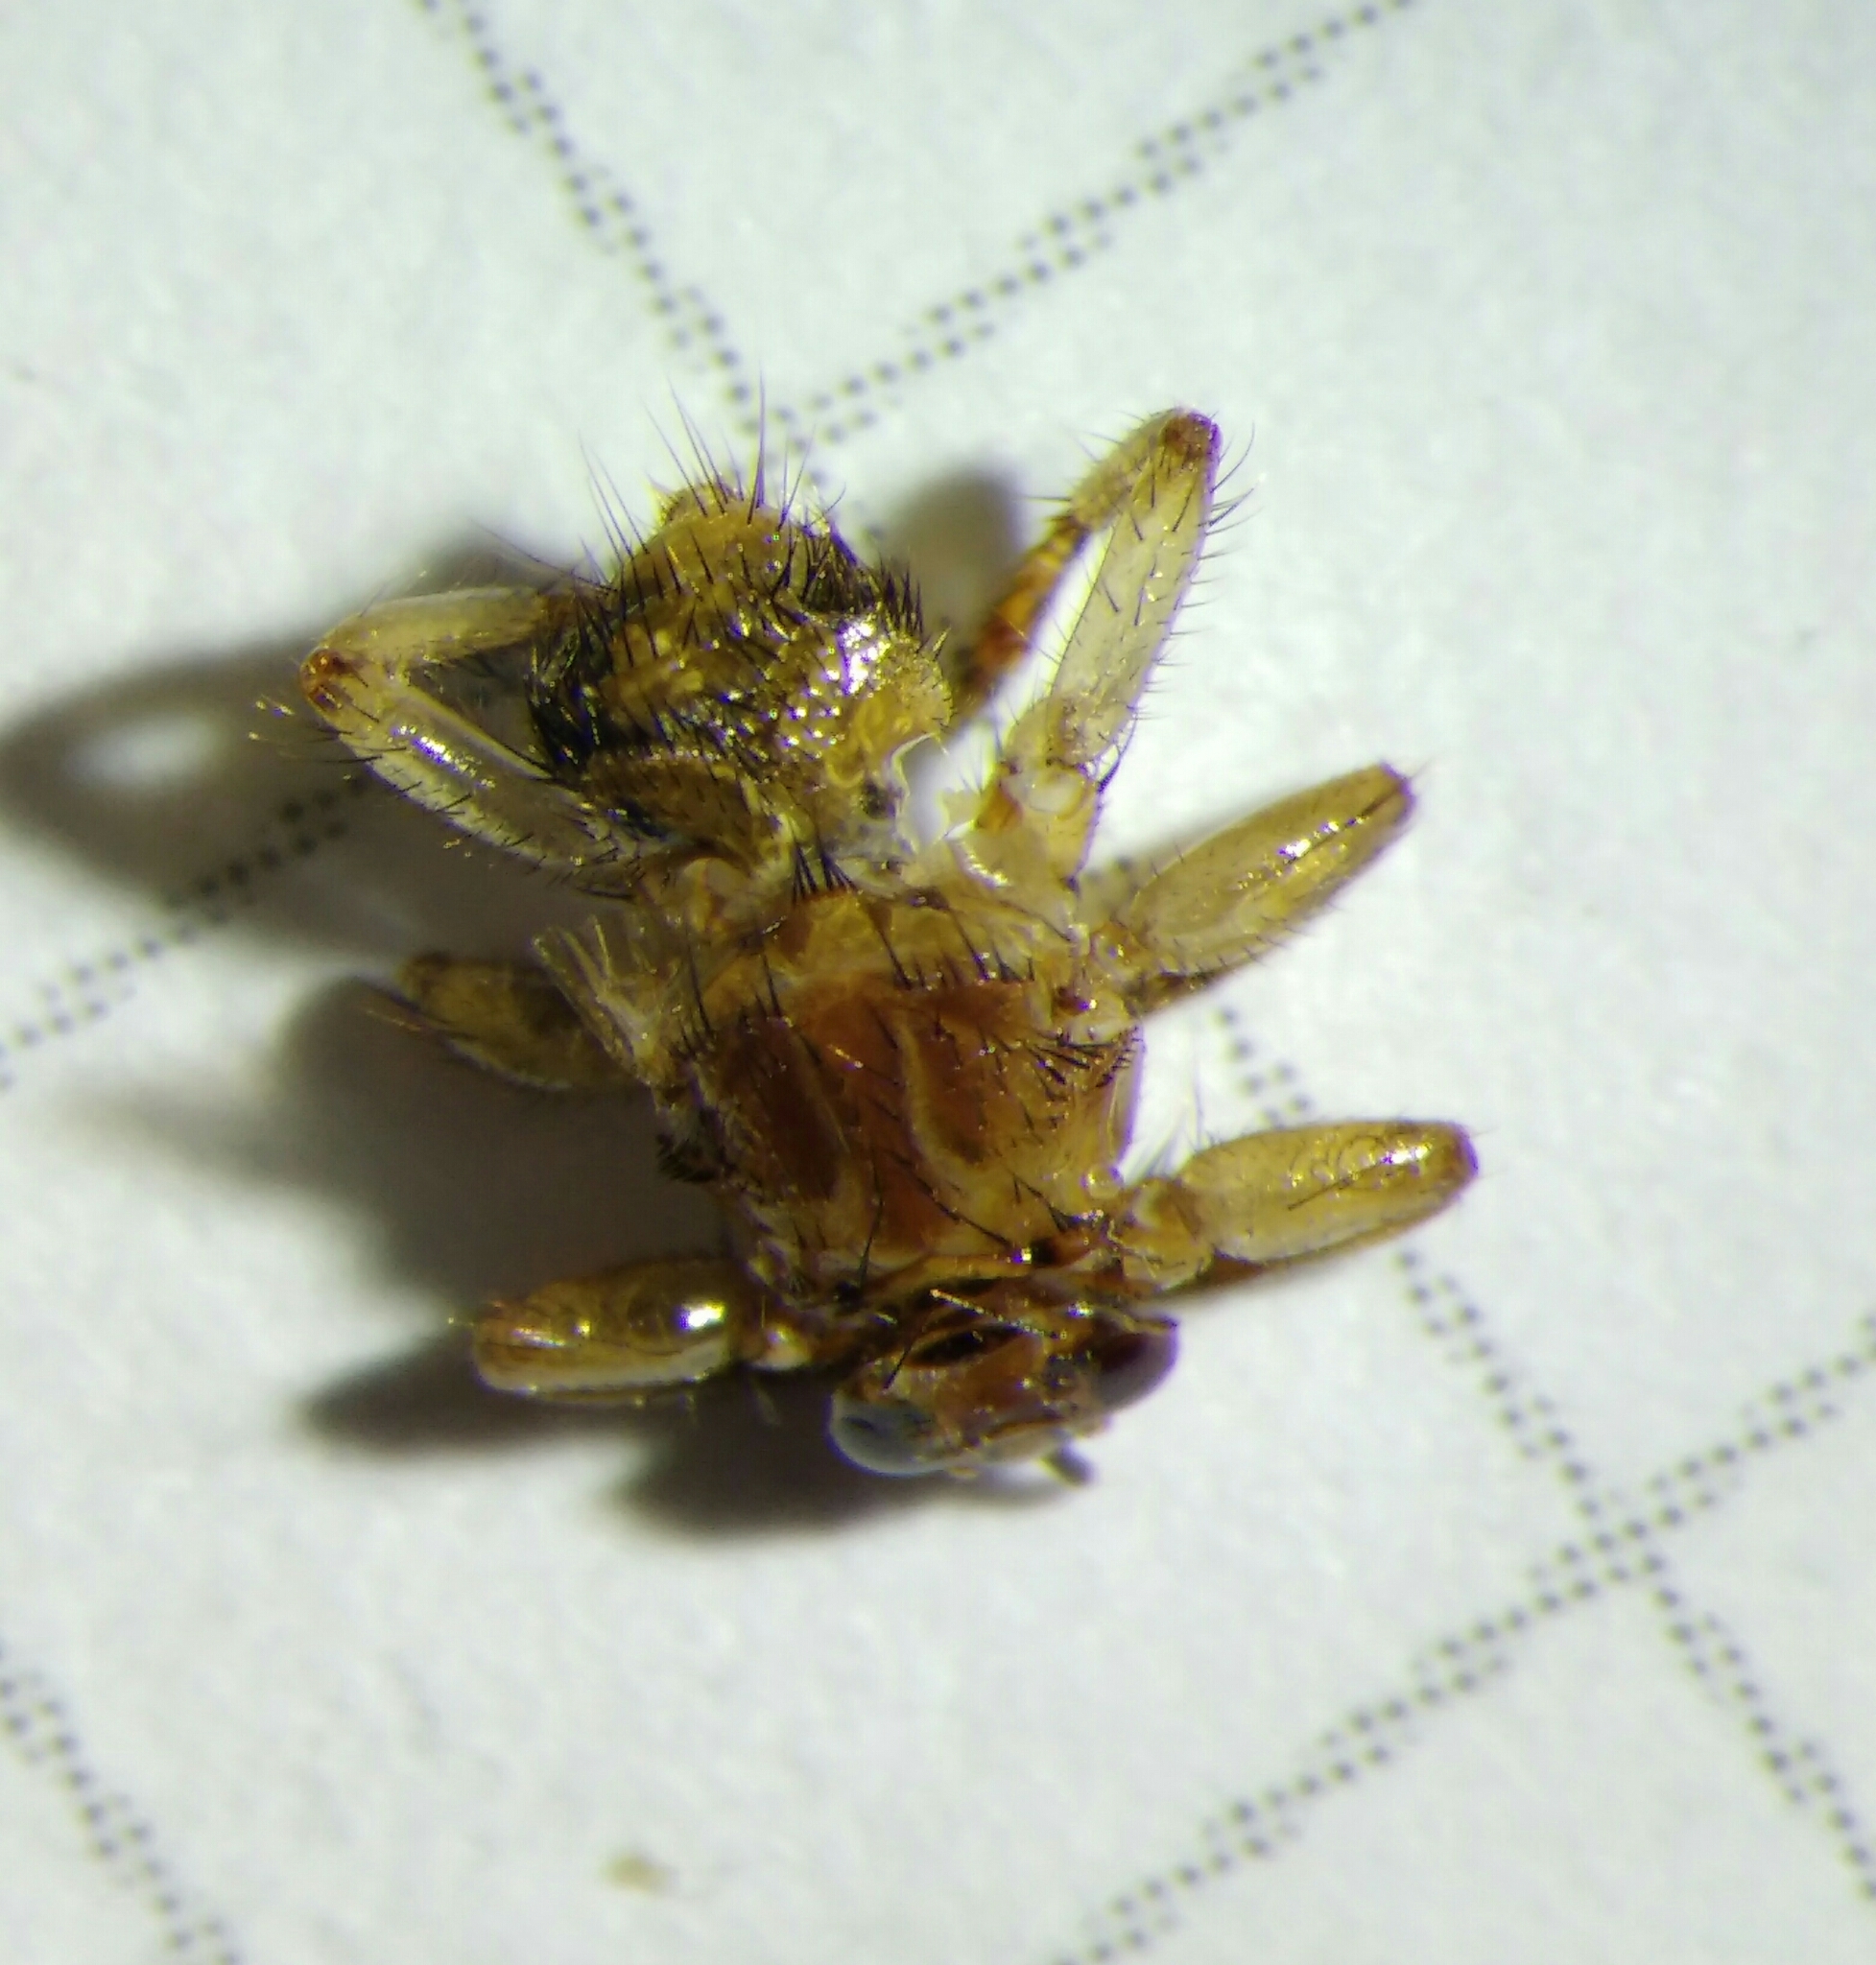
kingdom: Animalia
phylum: Arthropoda
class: Insecta
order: Diptera
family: Hippoboscidae
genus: Lipoptena
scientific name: Lipoptena cervi
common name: Deer ked
